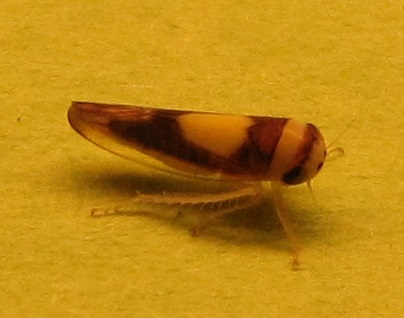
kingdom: Animalia
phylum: Arthropoda
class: Insecta
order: Hemiptera
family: Cicadellidae
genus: Colladonus
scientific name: Colladonus clitellarius
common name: The saddleback leafhopper
